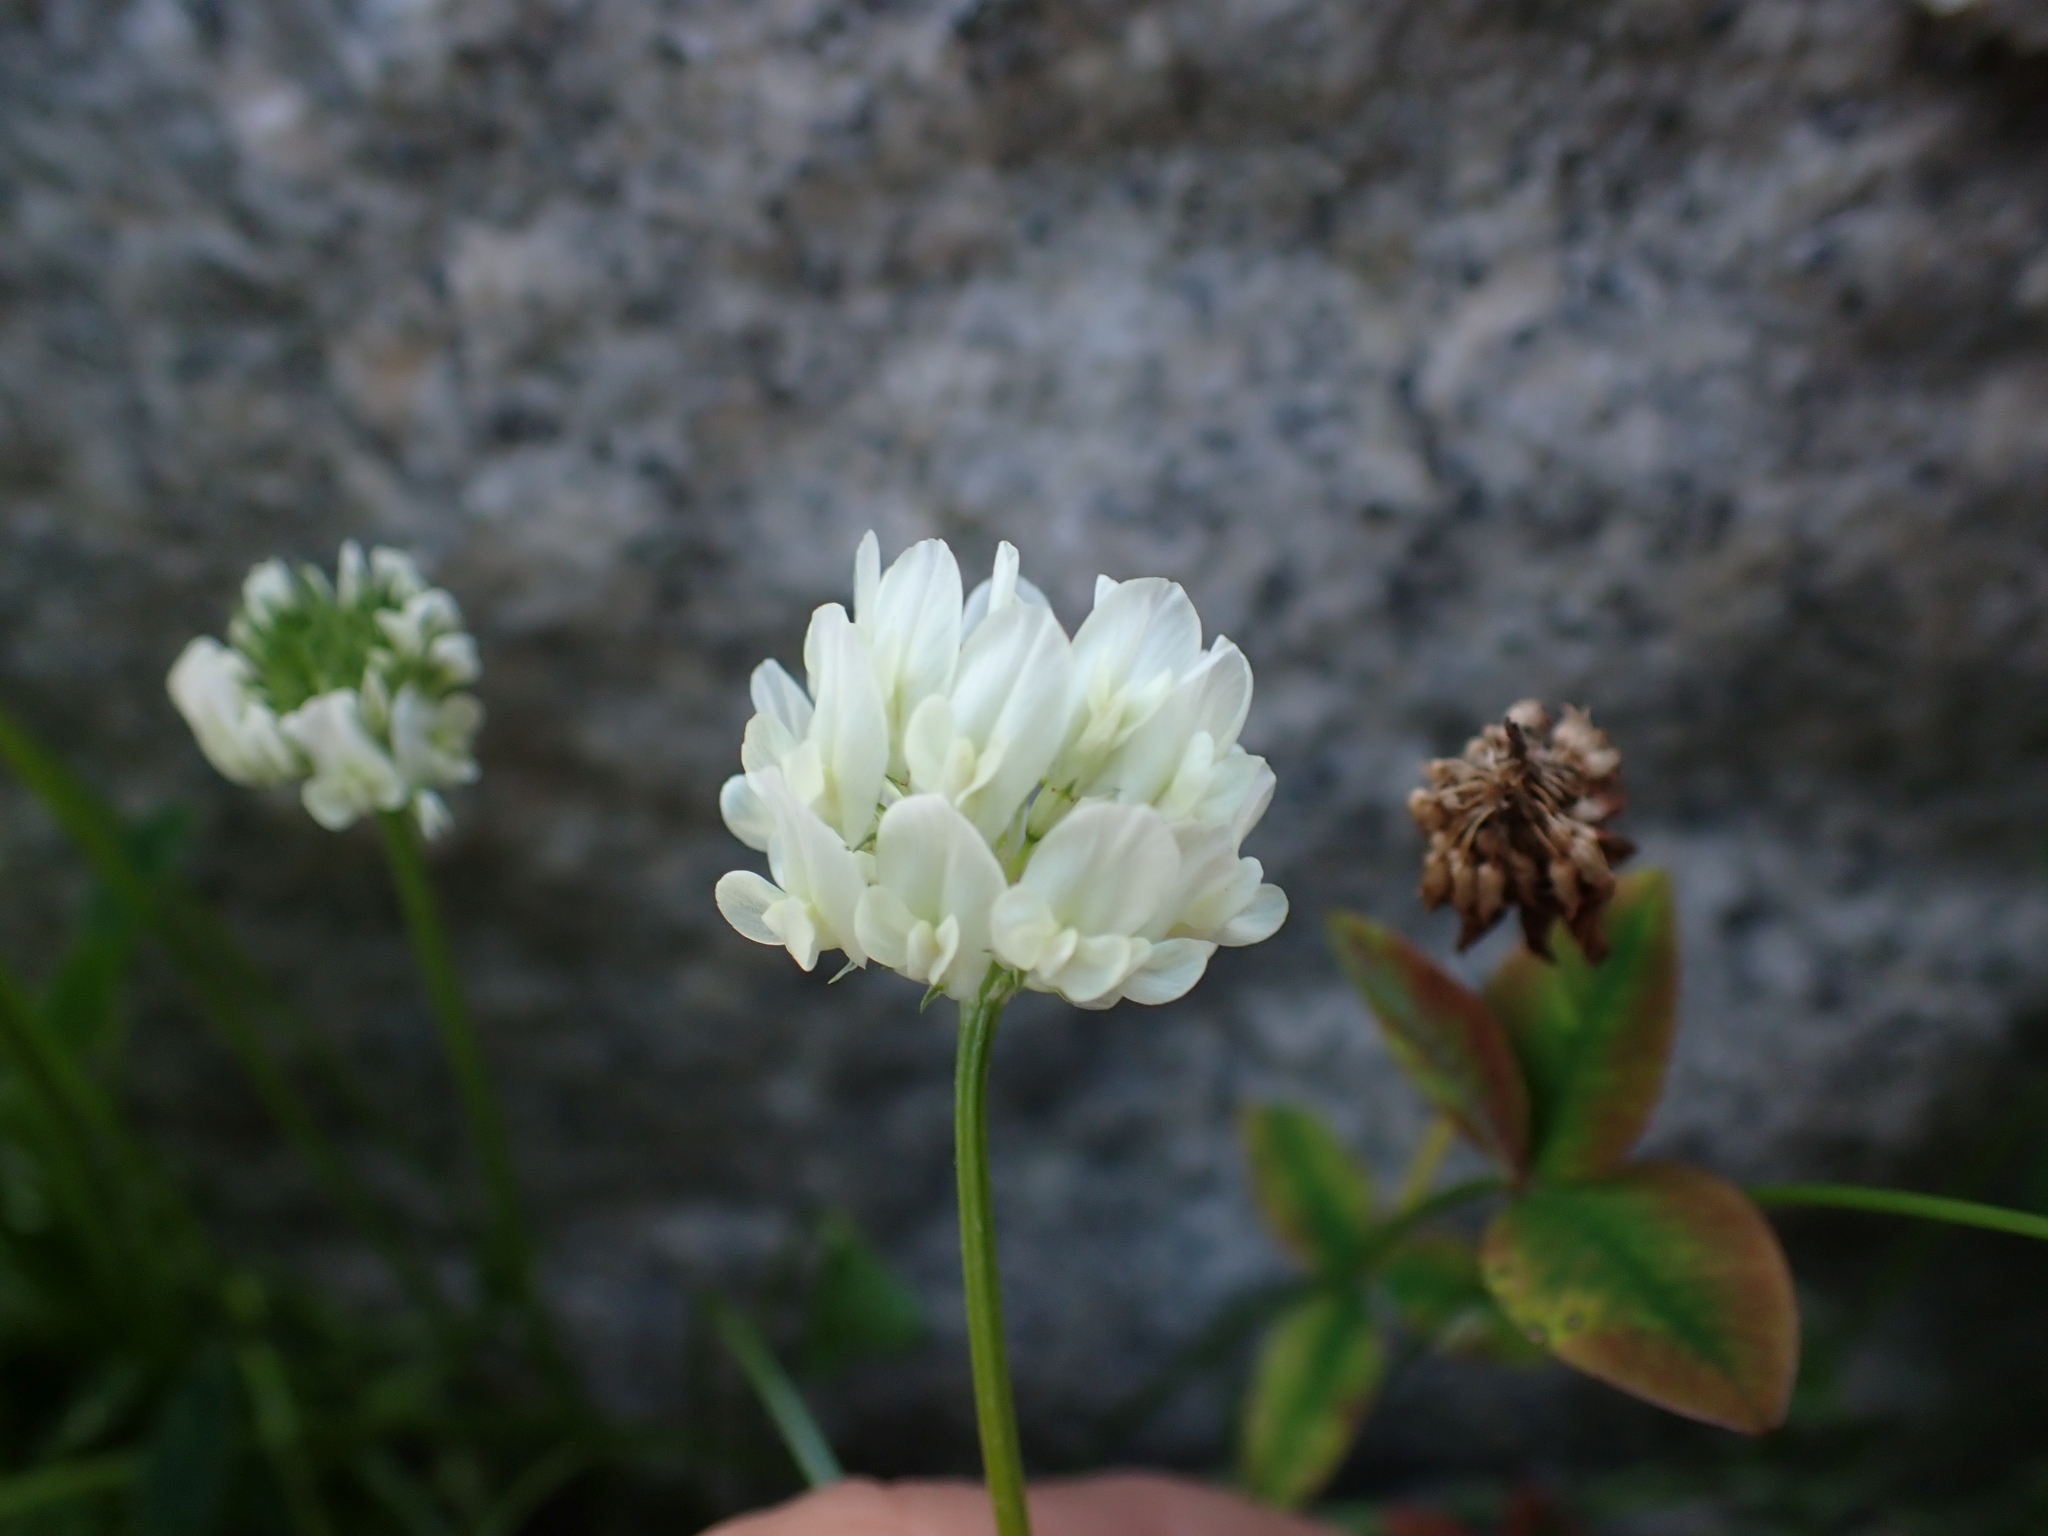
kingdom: Plantae
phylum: Tracheophyta
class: Magnoliopsida
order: Fabales
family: Fabaceae
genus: Trifolium
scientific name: Trifolium repens
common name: White clover
